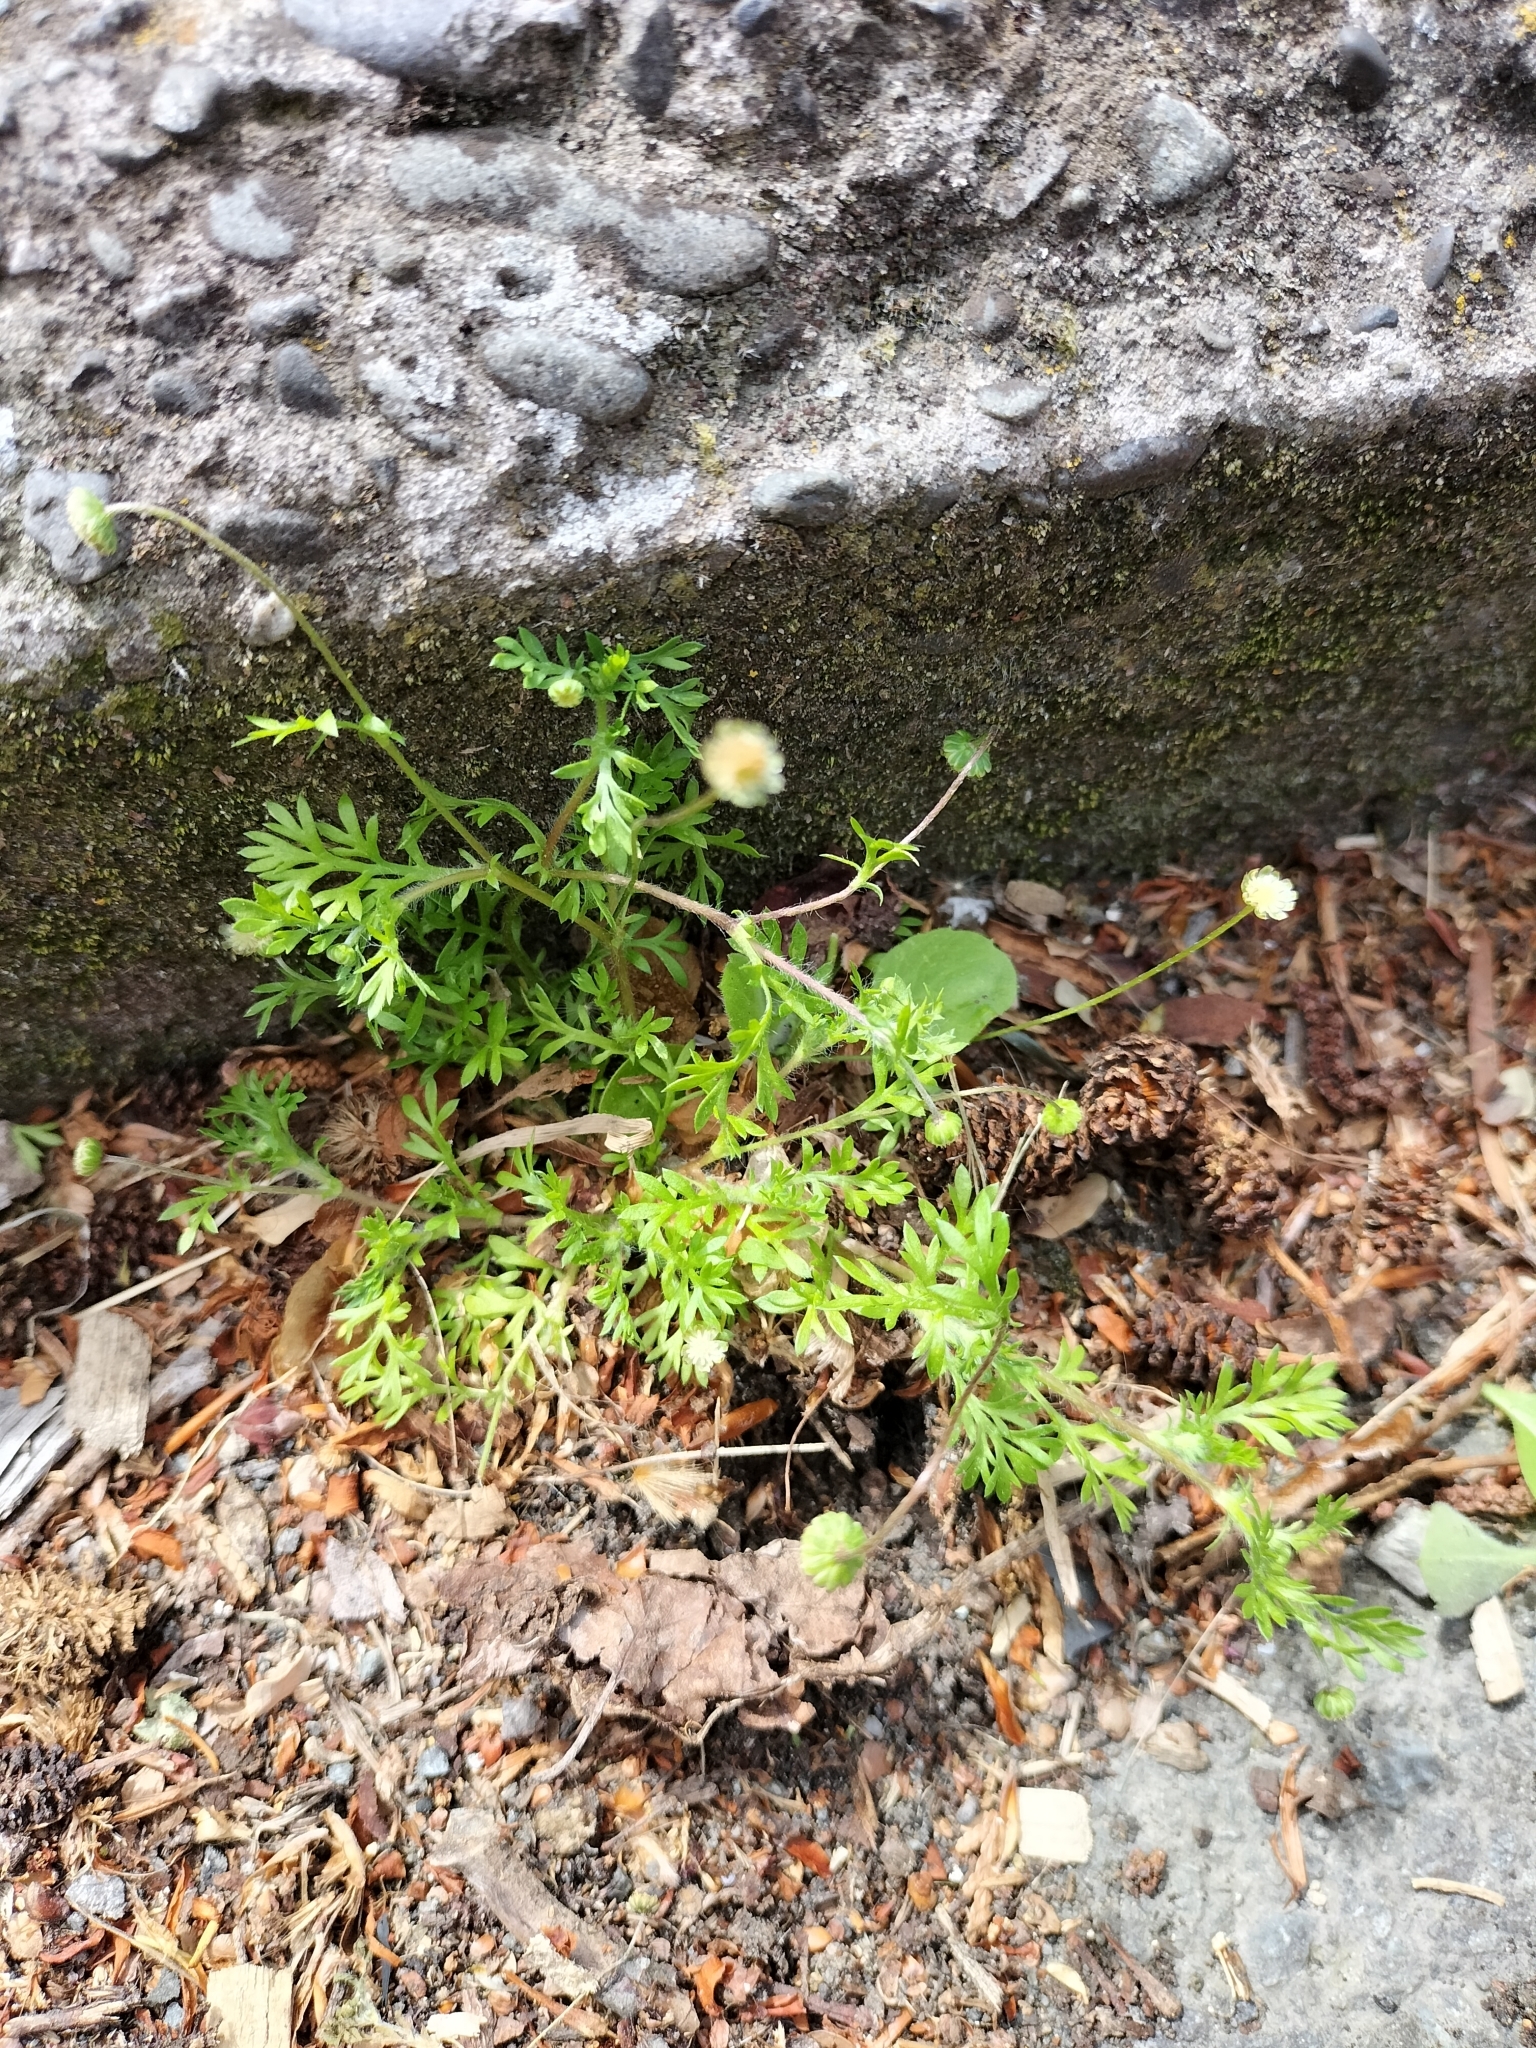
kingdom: Plantae
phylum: Tracheophyta
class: Magnoliopsida
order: Asterales
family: Asteraceae
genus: Cotula
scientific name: Cotula australis
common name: Australian waterbuttons
